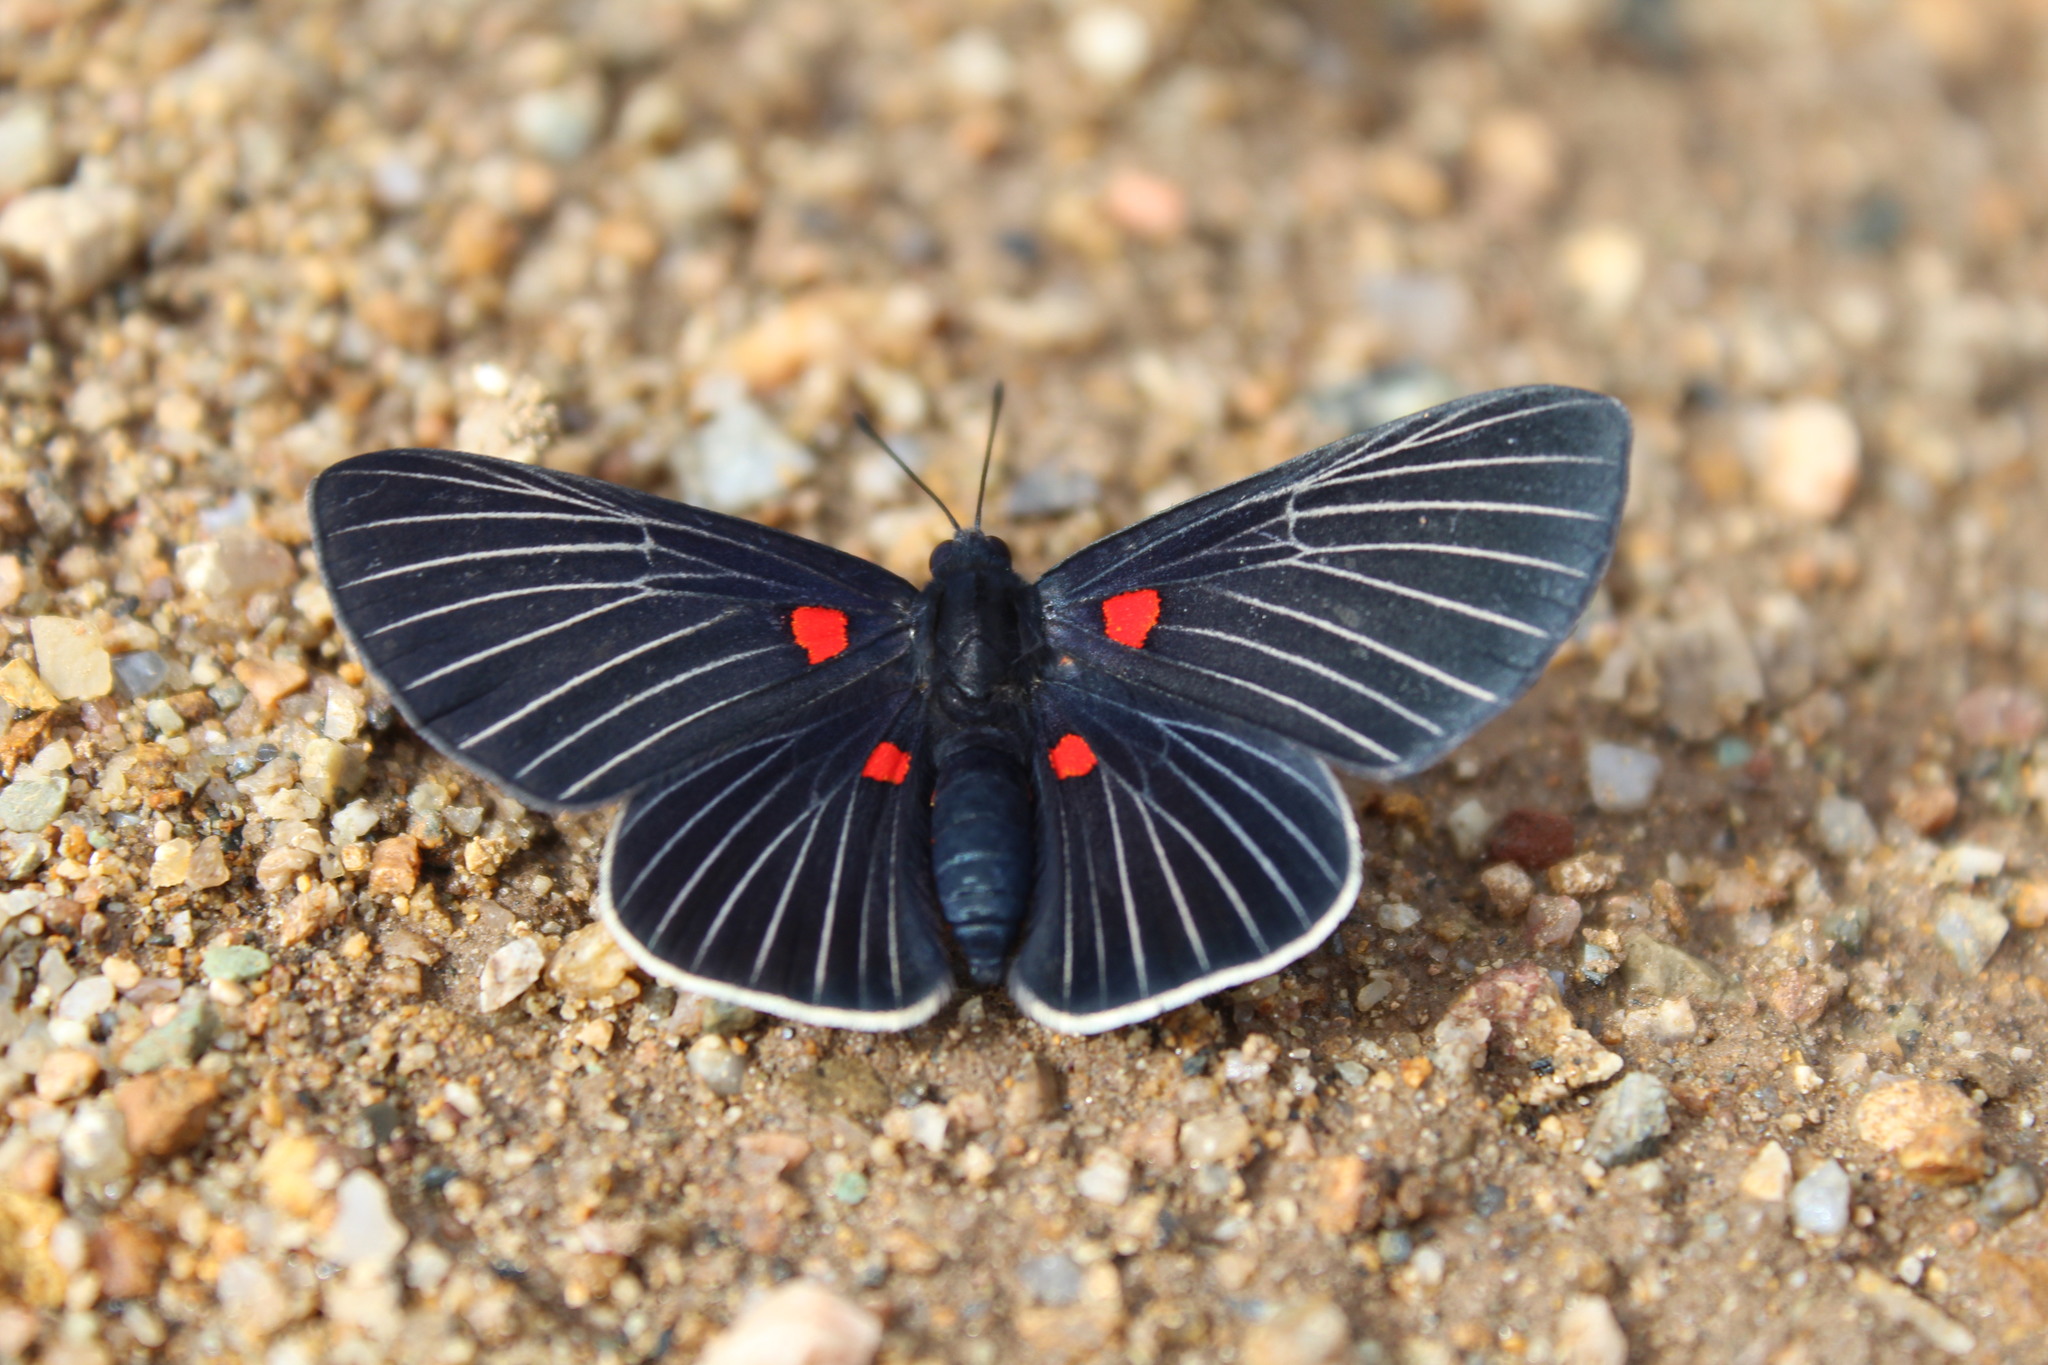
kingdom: Animalia
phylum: Arthropoda
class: Insecta
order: Lepidoptera
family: Lycaenidae
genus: Melanis
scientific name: Melanis
